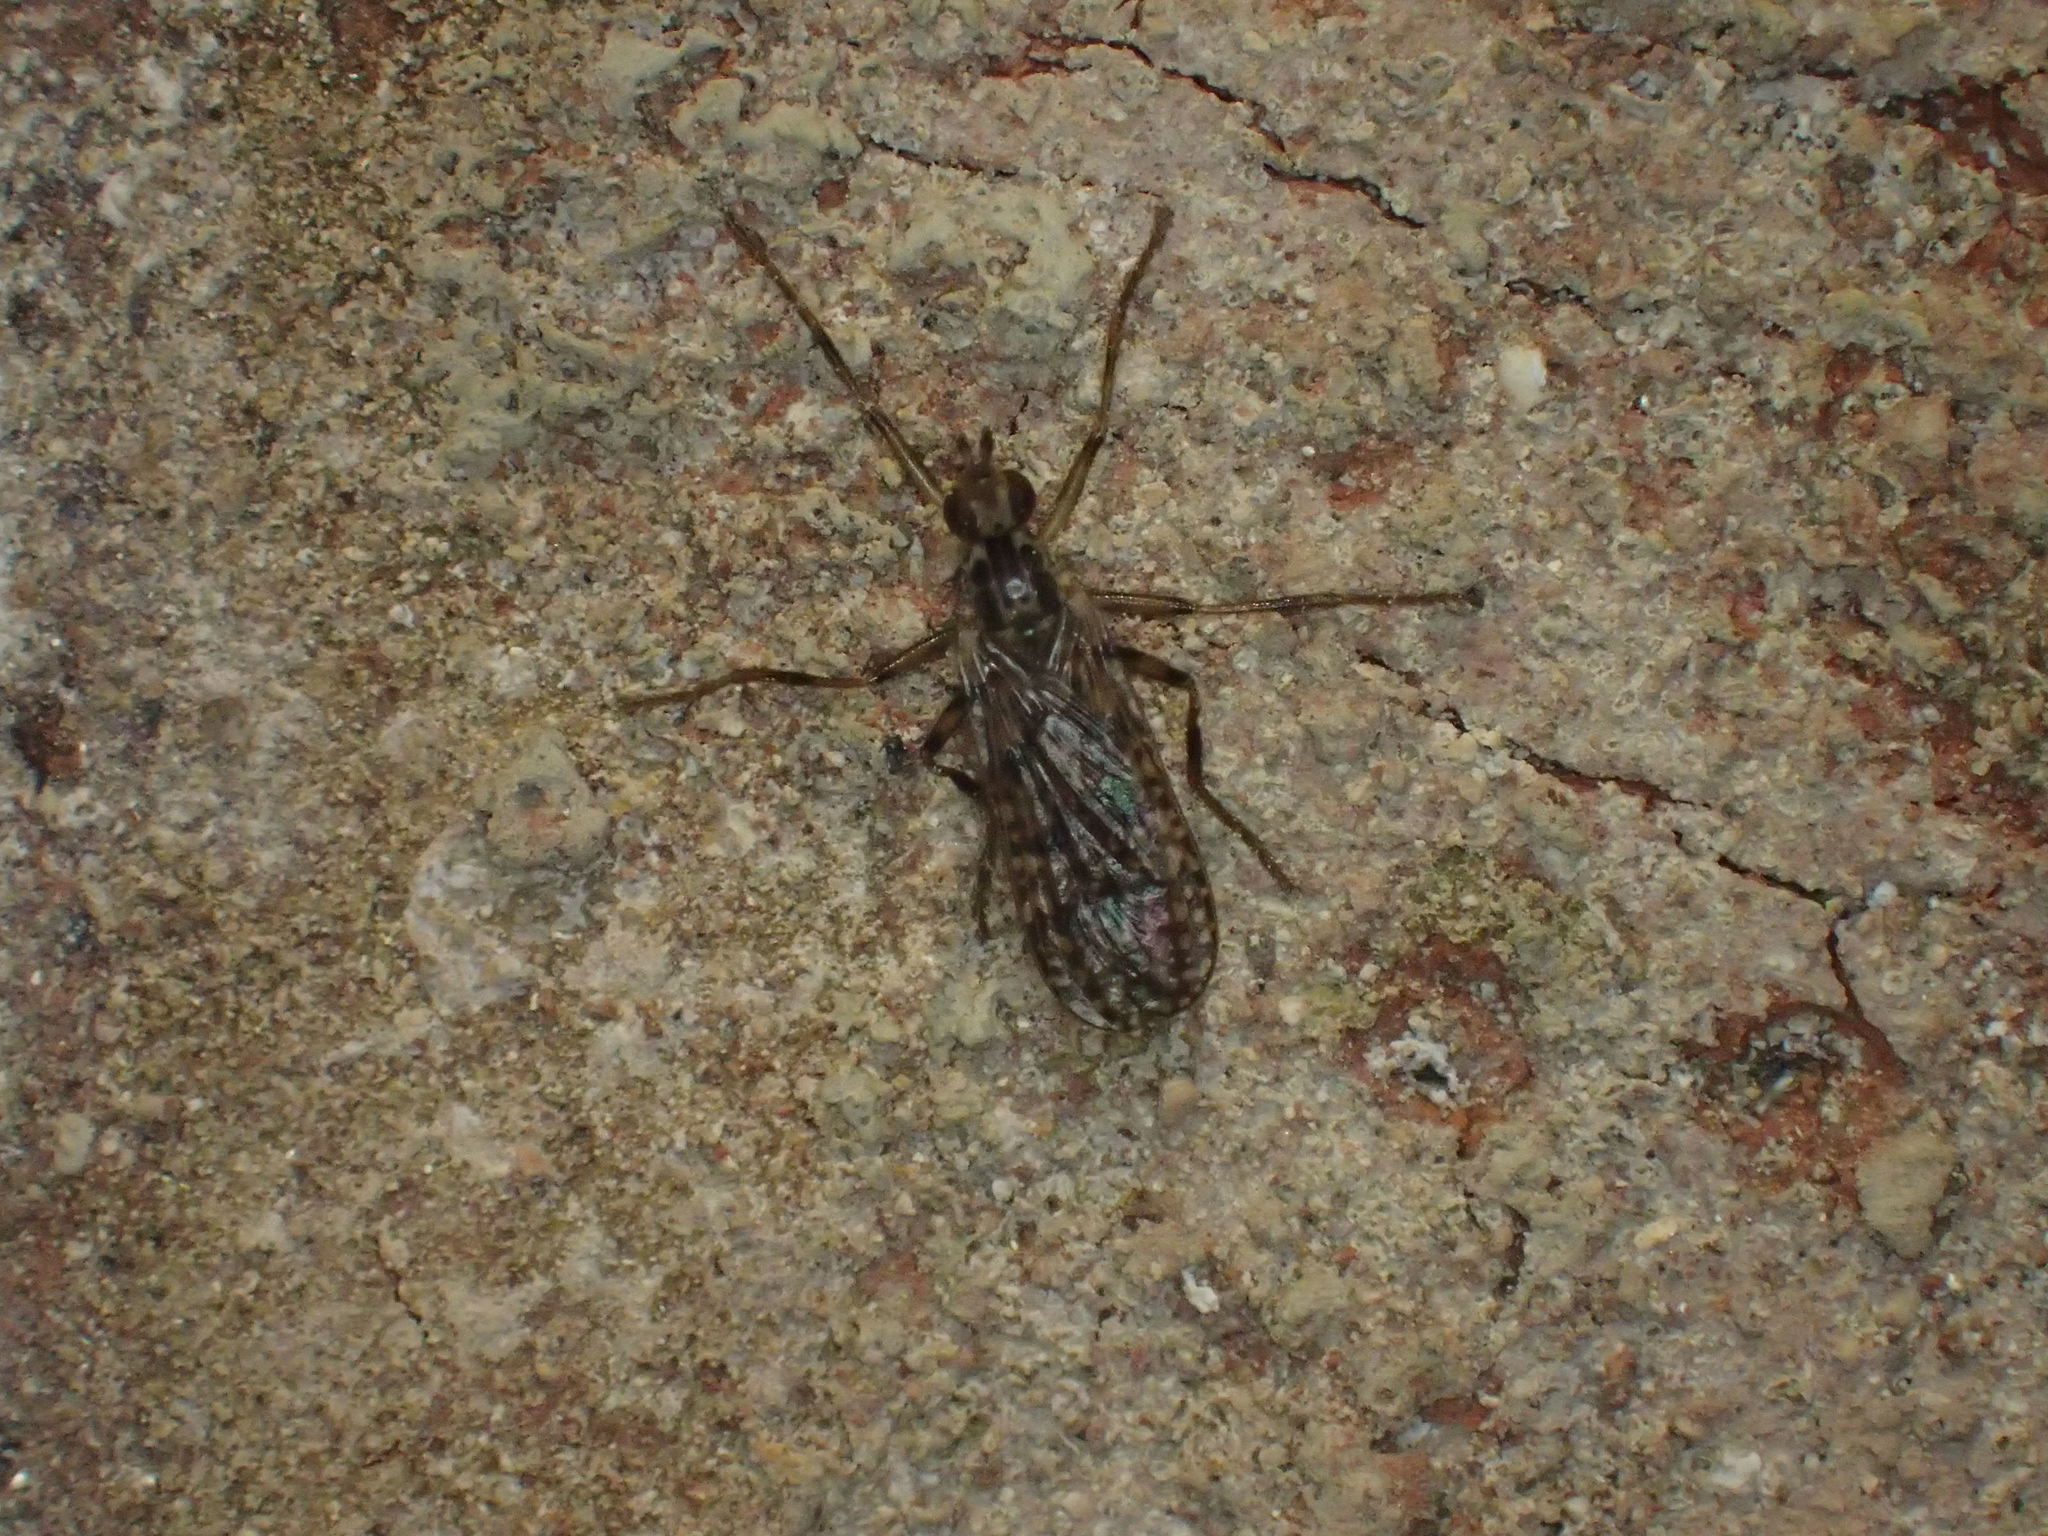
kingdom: Animalia
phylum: Arthropoda
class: Insecta
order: Diptera
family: Pyrgotidae
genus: Boreothrinax
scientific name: Boreothrinax
